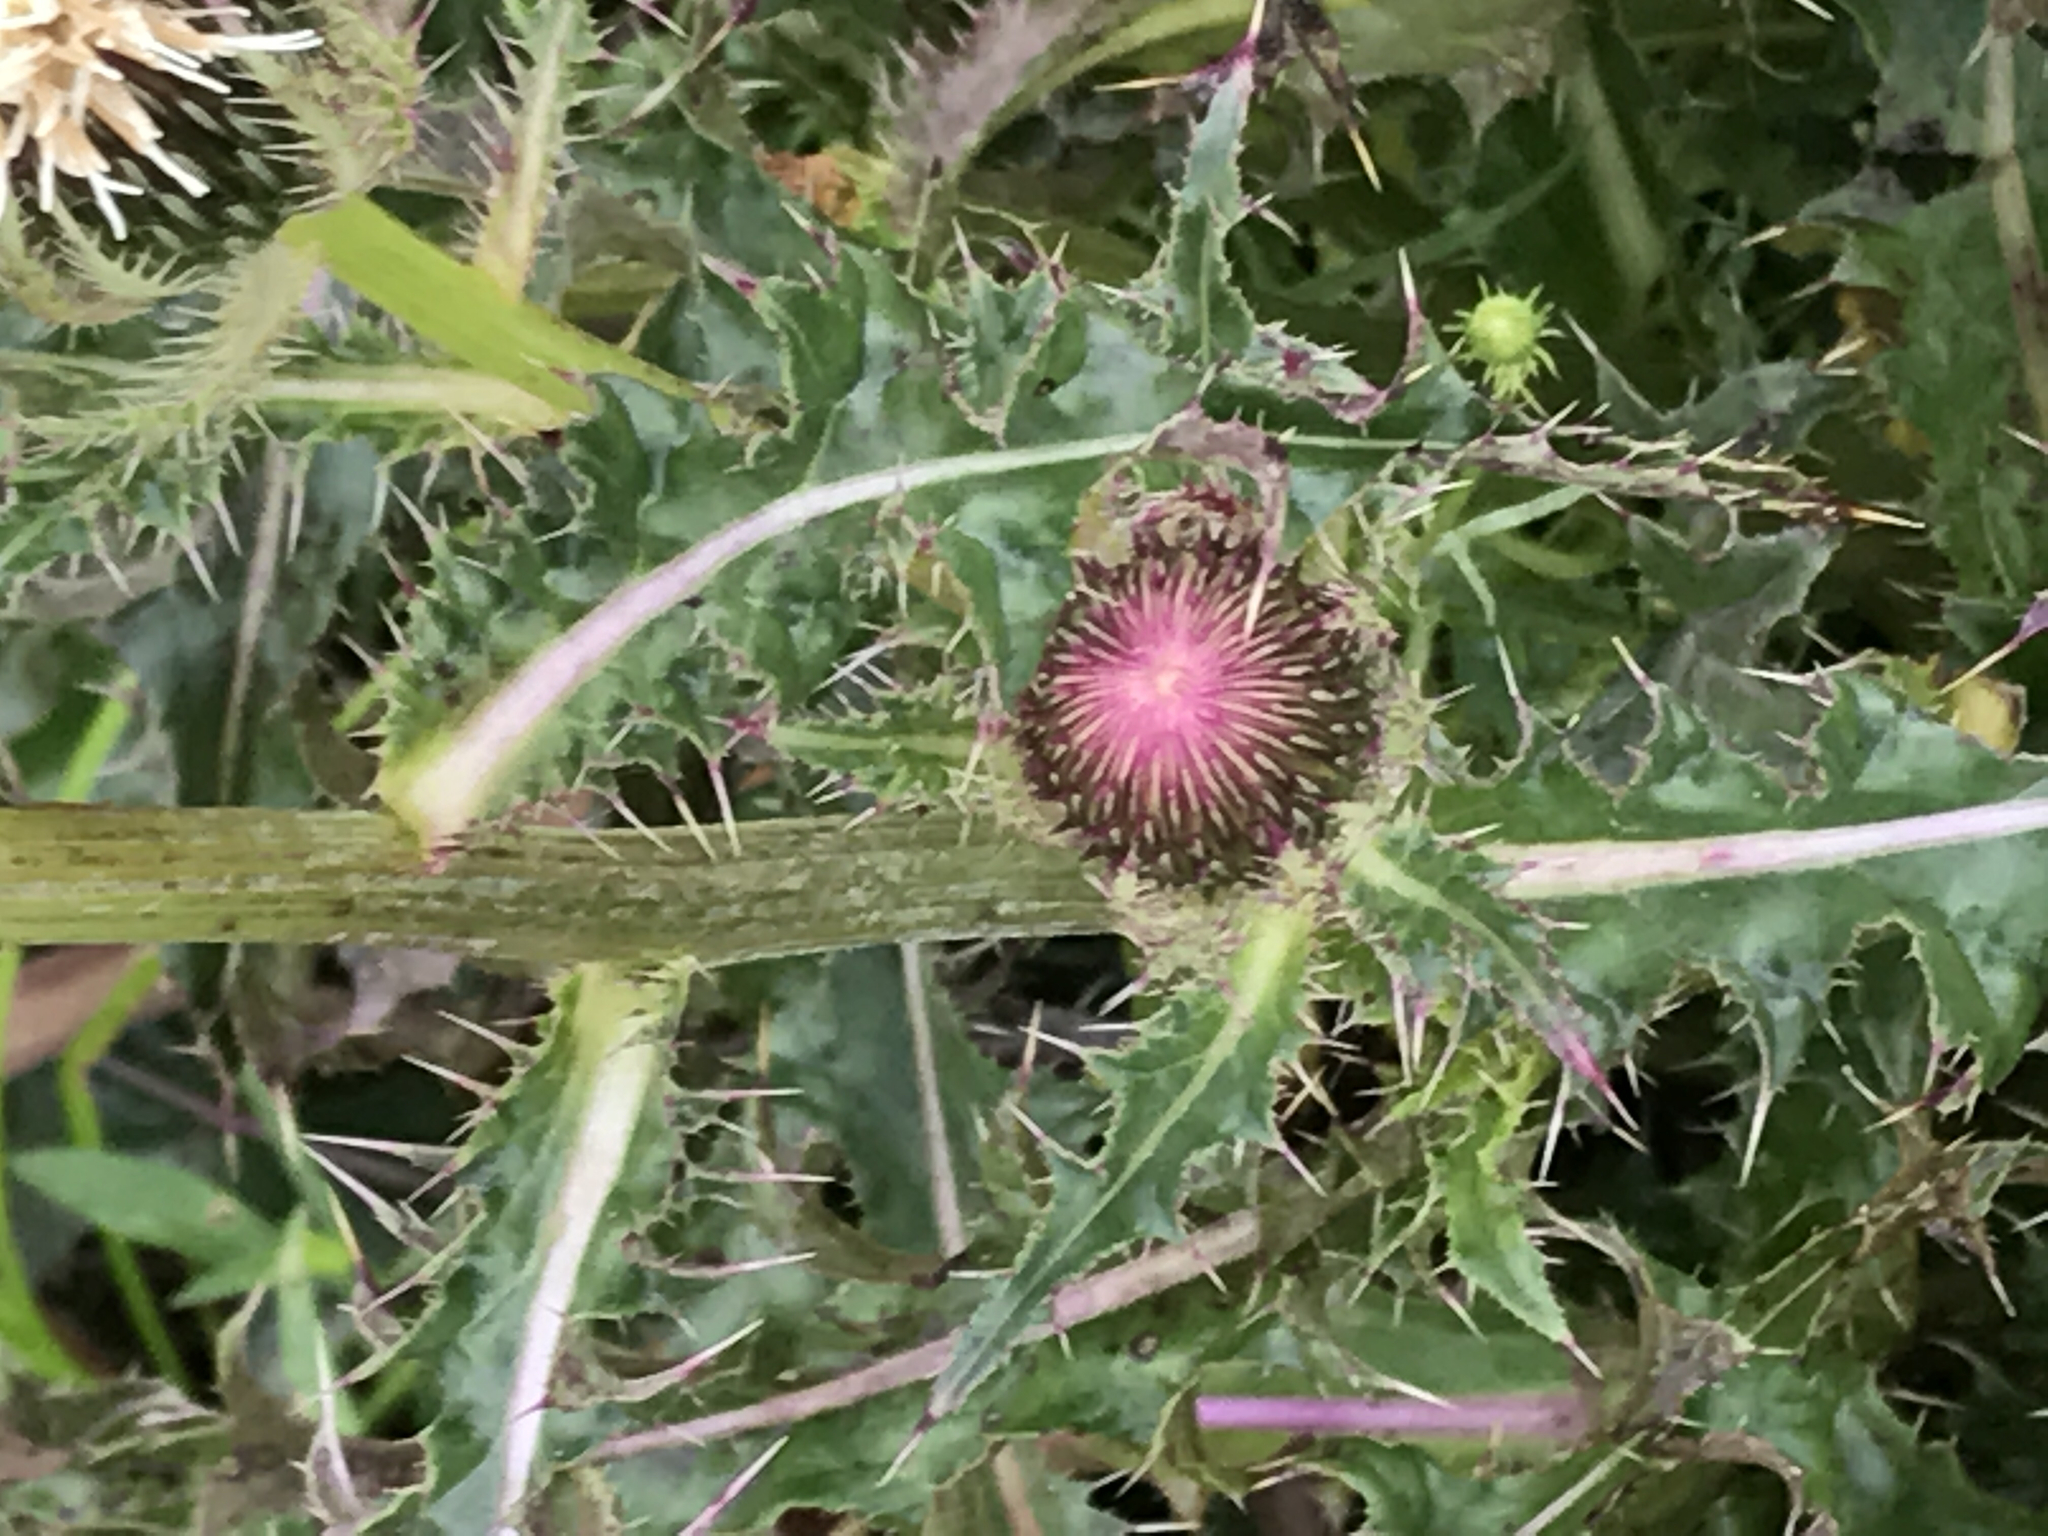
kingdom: Plantae
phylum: Tracheophyta
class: Magnoliopsida
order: Asterales
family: Asteraceae
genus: Cirsium
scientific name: Cirsium horridulum
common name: Bristly thistle
